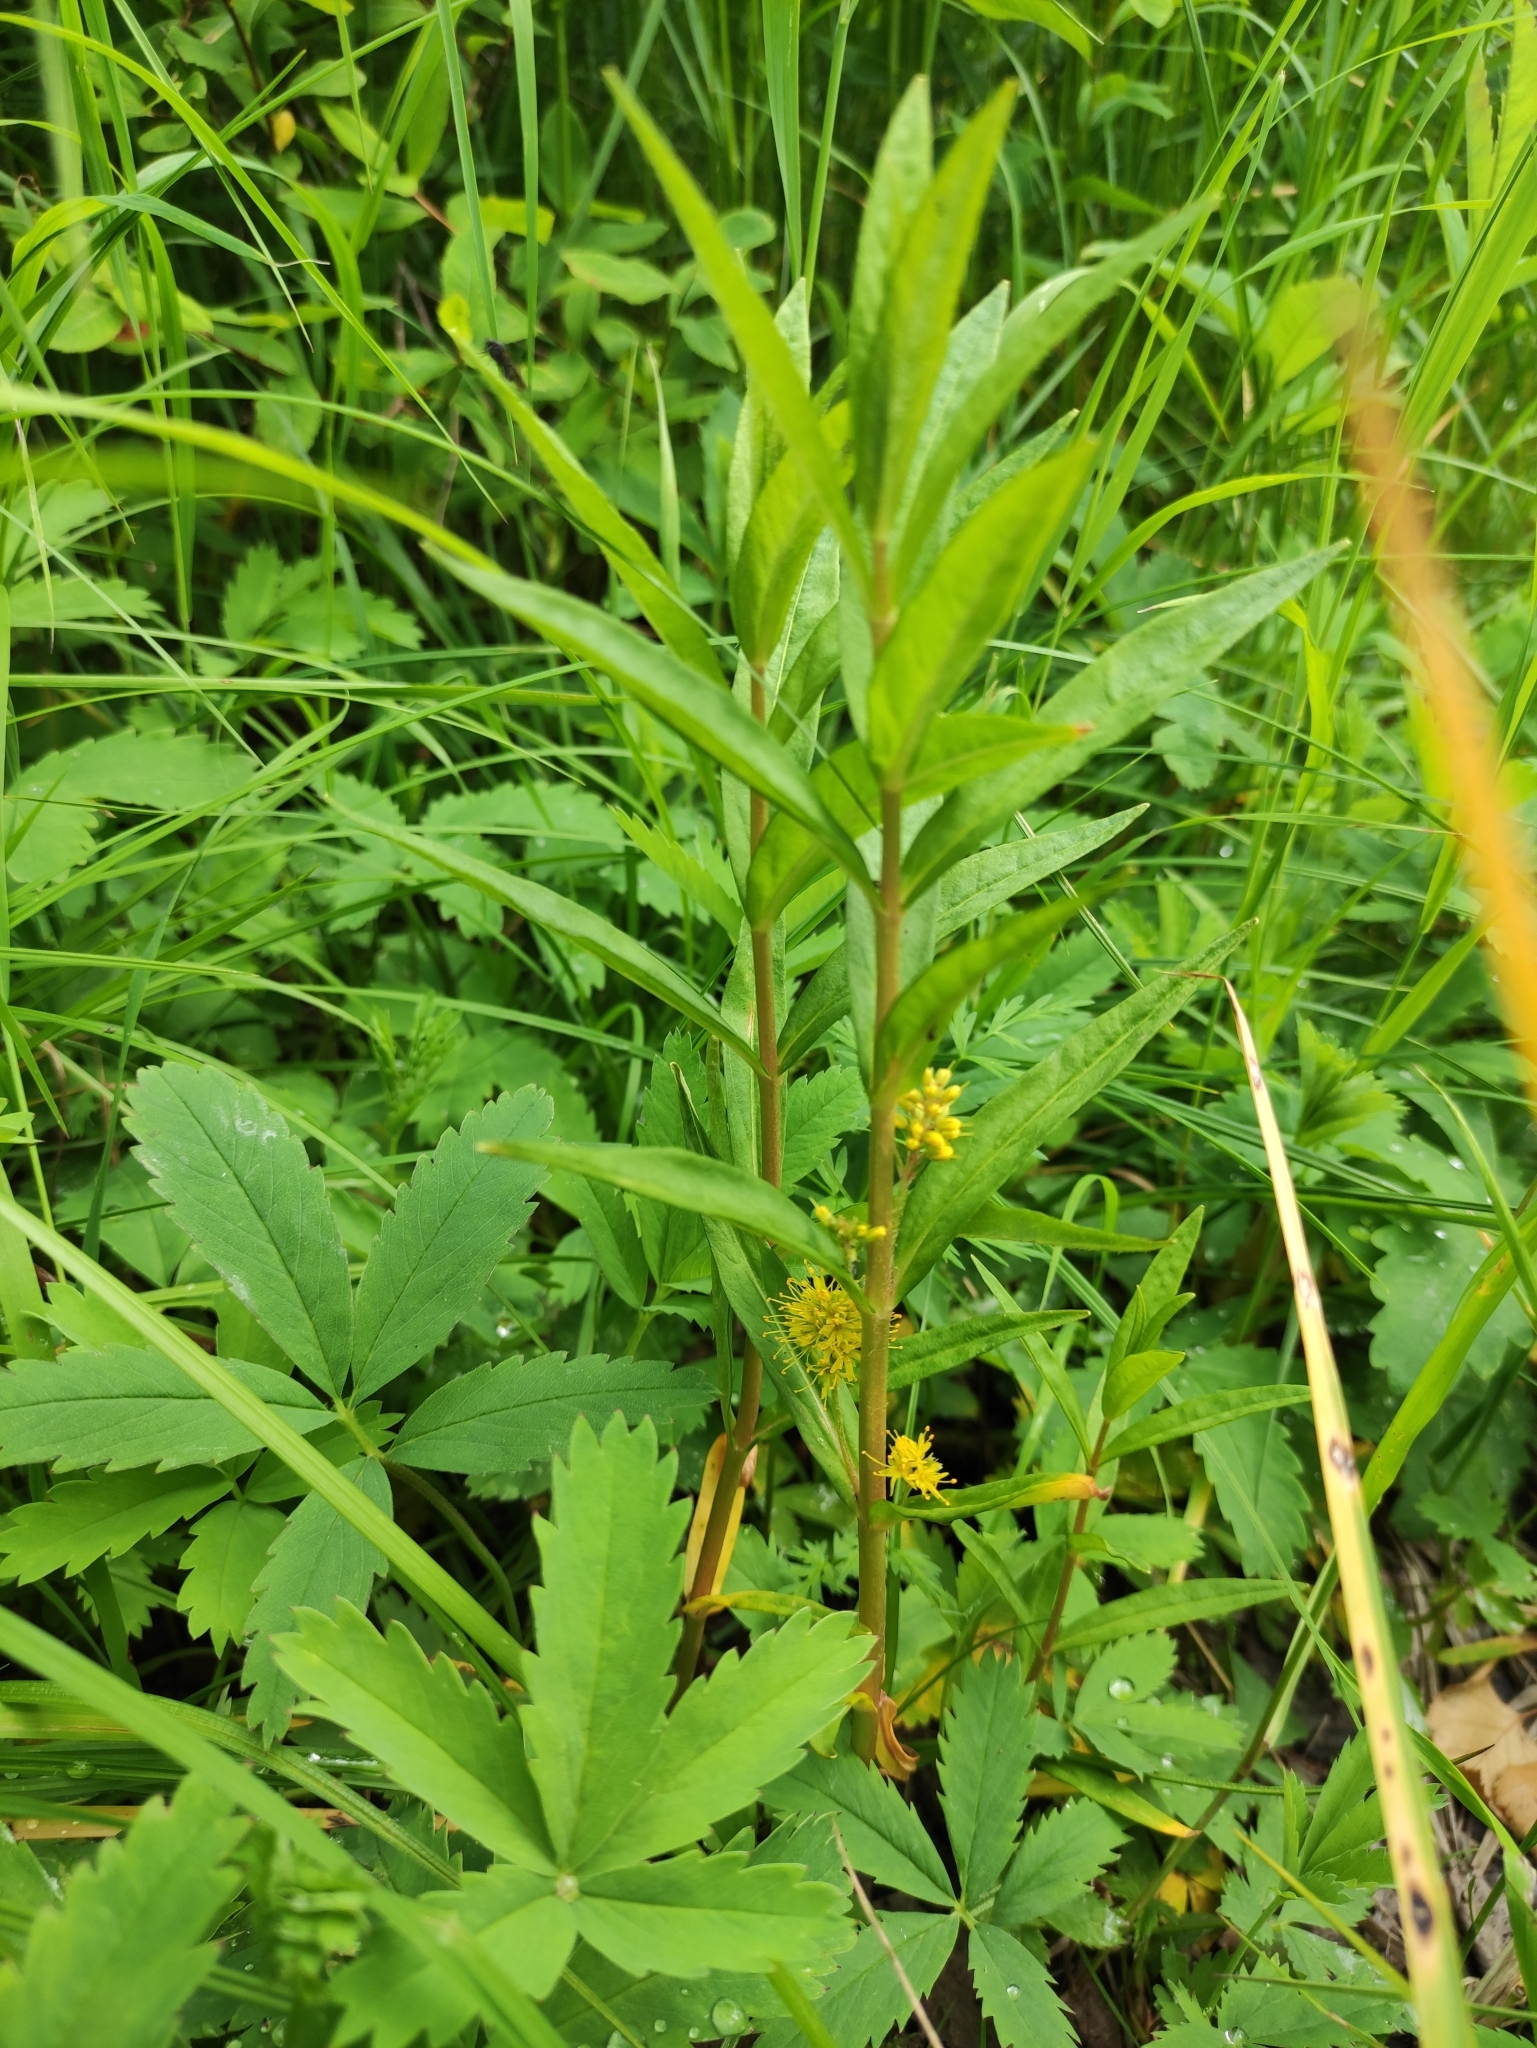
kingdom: Plantae
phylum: Tracheophyta
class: Magnoliopsida
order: Ericales
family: Primulaceae
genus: Lysimachia
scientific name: Lysimachia thyrsiflora
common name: Tufted loosestrife
